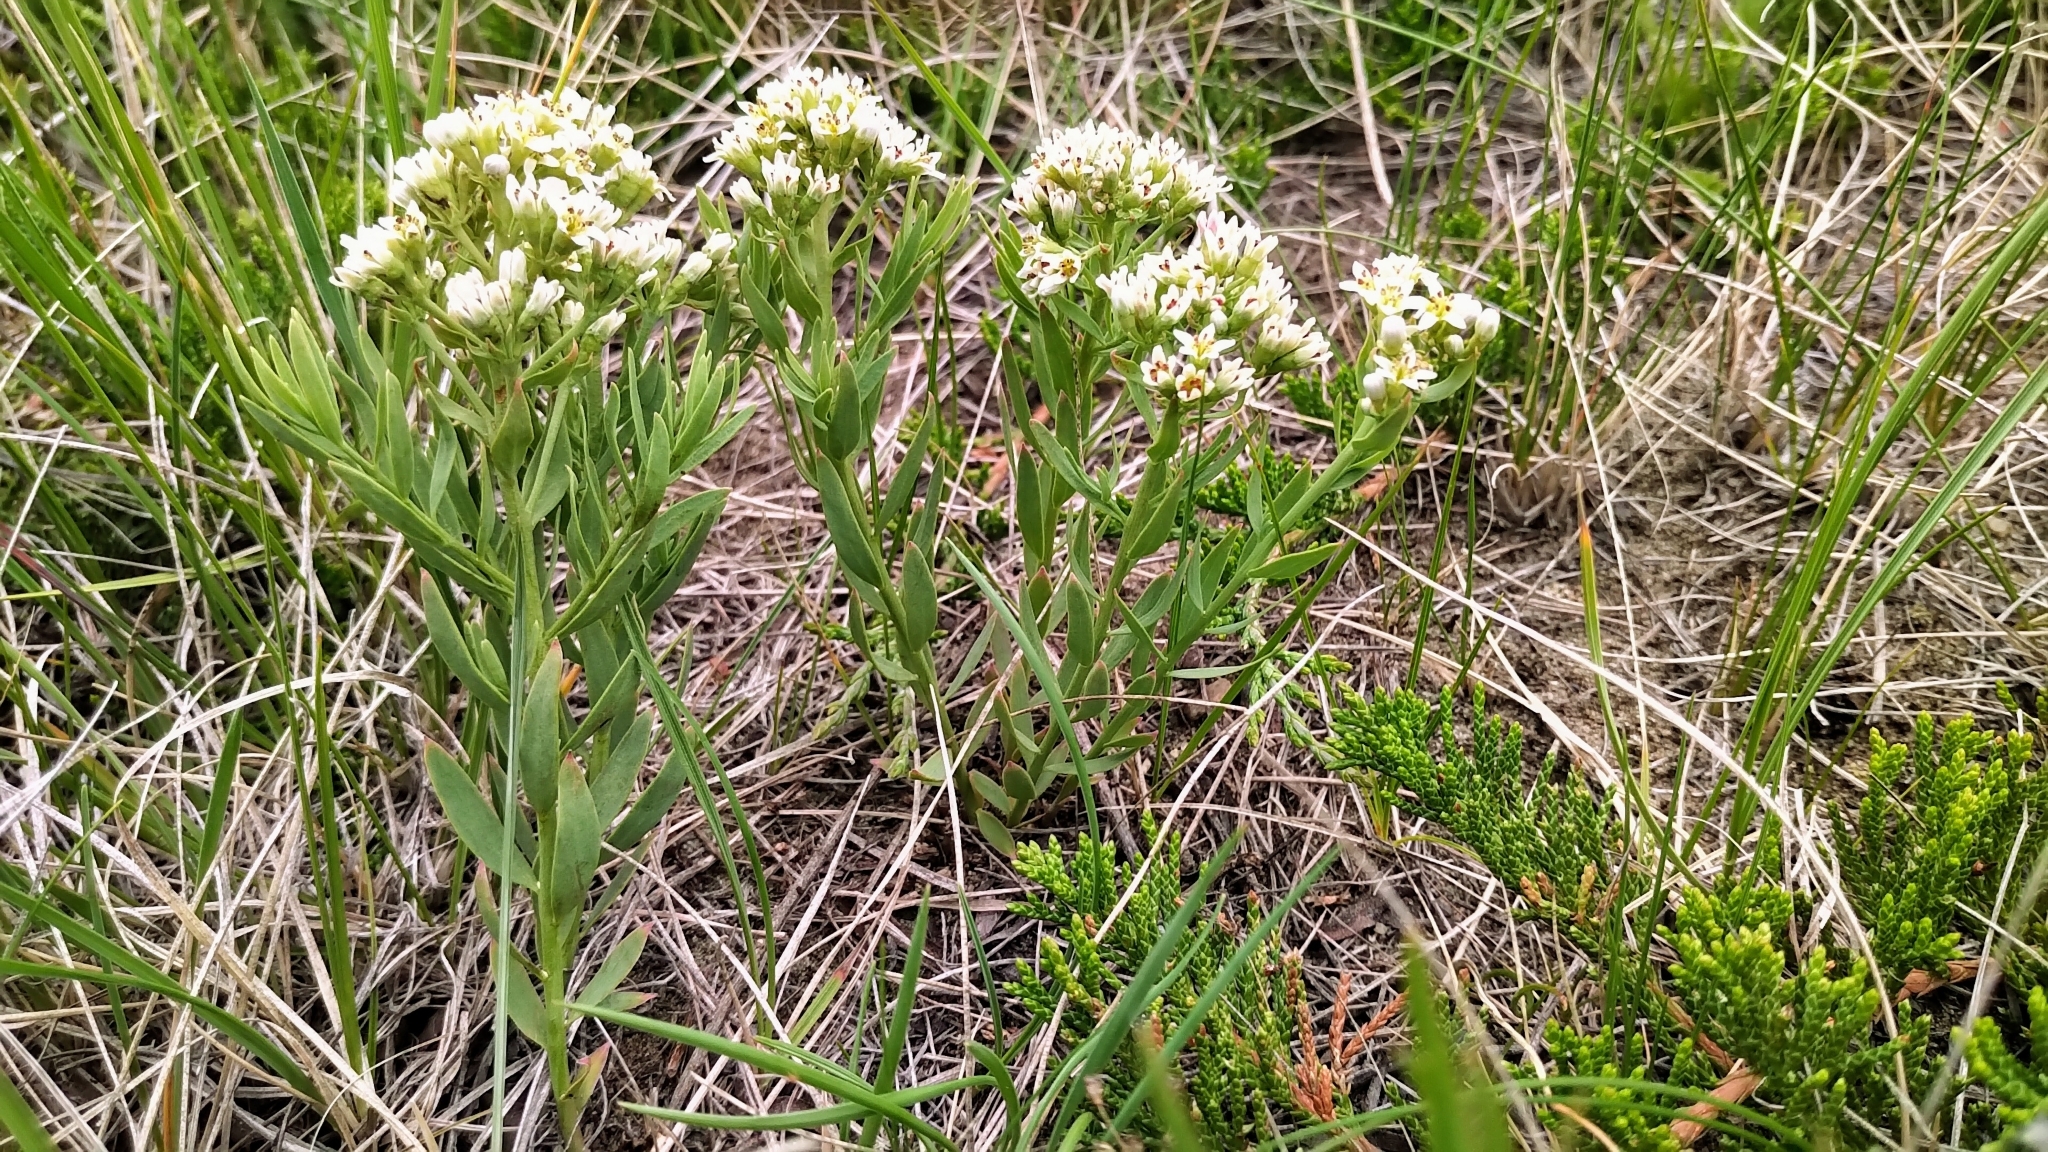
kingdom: Plantae
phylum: Tracheophyta
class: Magnoliopsida
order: Santalales
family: Comandraceae
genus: Comandra
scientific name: Comandra umbellata
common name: Bastard toadflax
